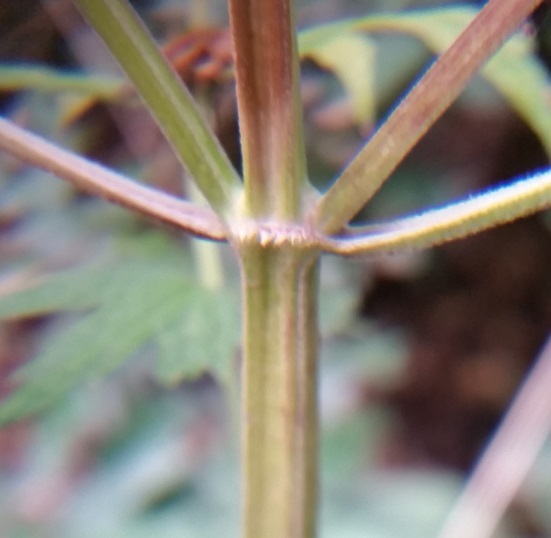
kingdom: Plantae
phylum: Tracheophyta
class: Magnoliopsida
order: Lamiales
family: Lamiaceae
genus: Leonurus
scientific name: Leonurus cardiaca
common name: Motherwort
